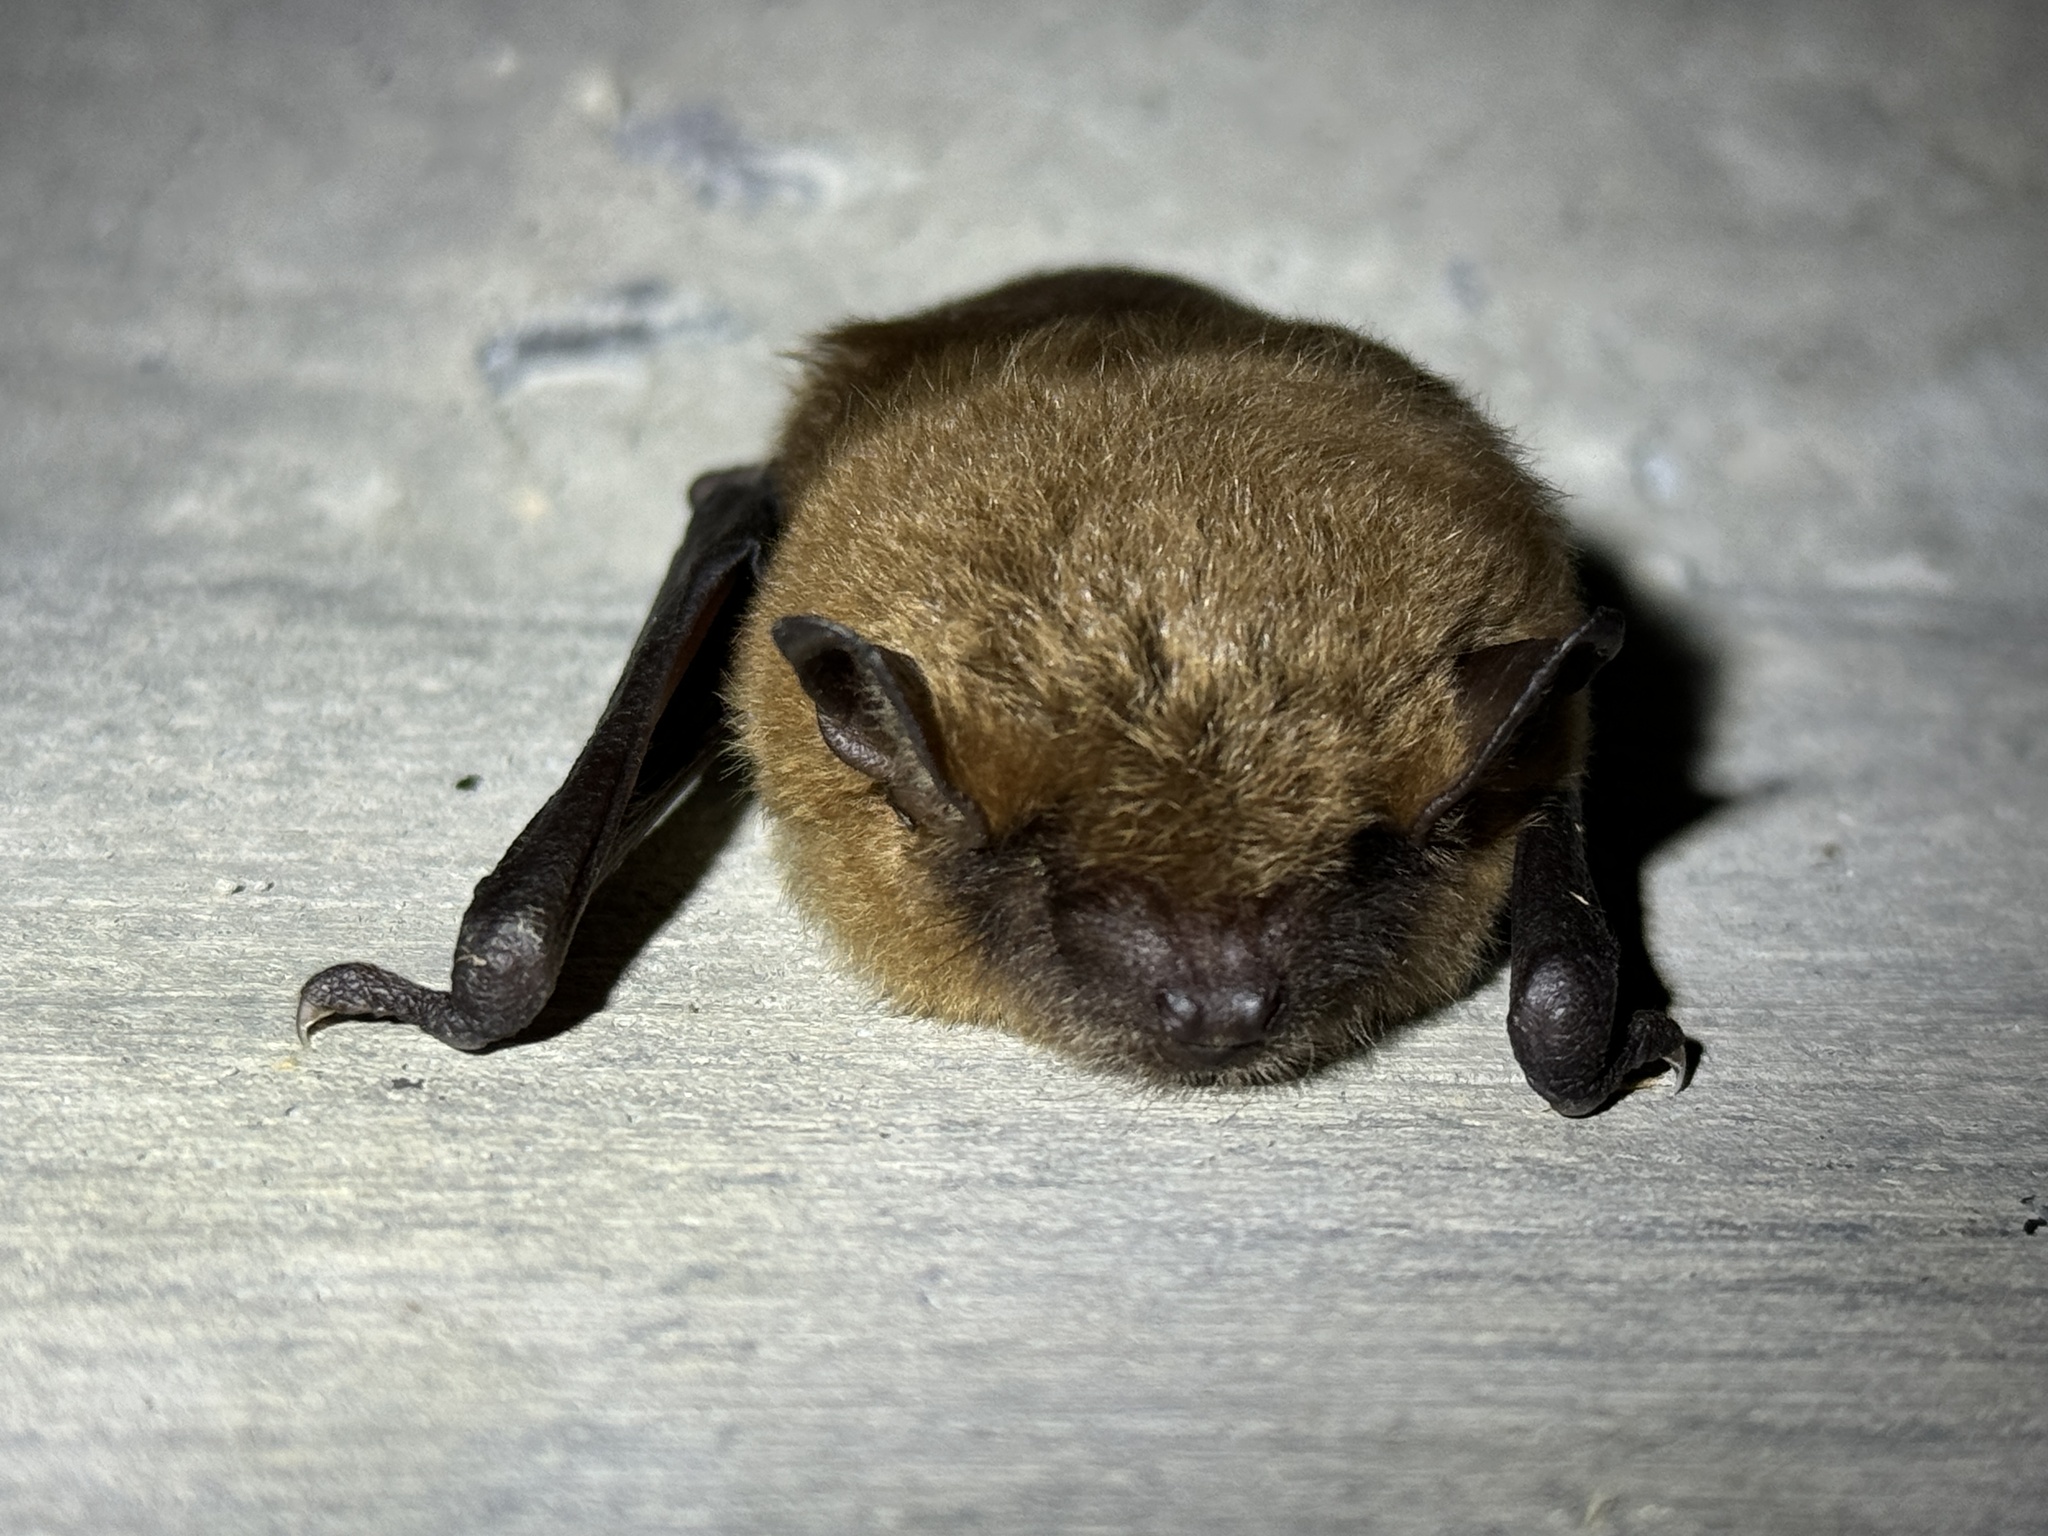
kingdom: Animalia
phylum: Chordata
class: Mammalia
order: Chiroptera
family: Vespertilionidae
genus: Eptesicus
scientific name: Eptesicus fuscus
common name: Big brown bat
